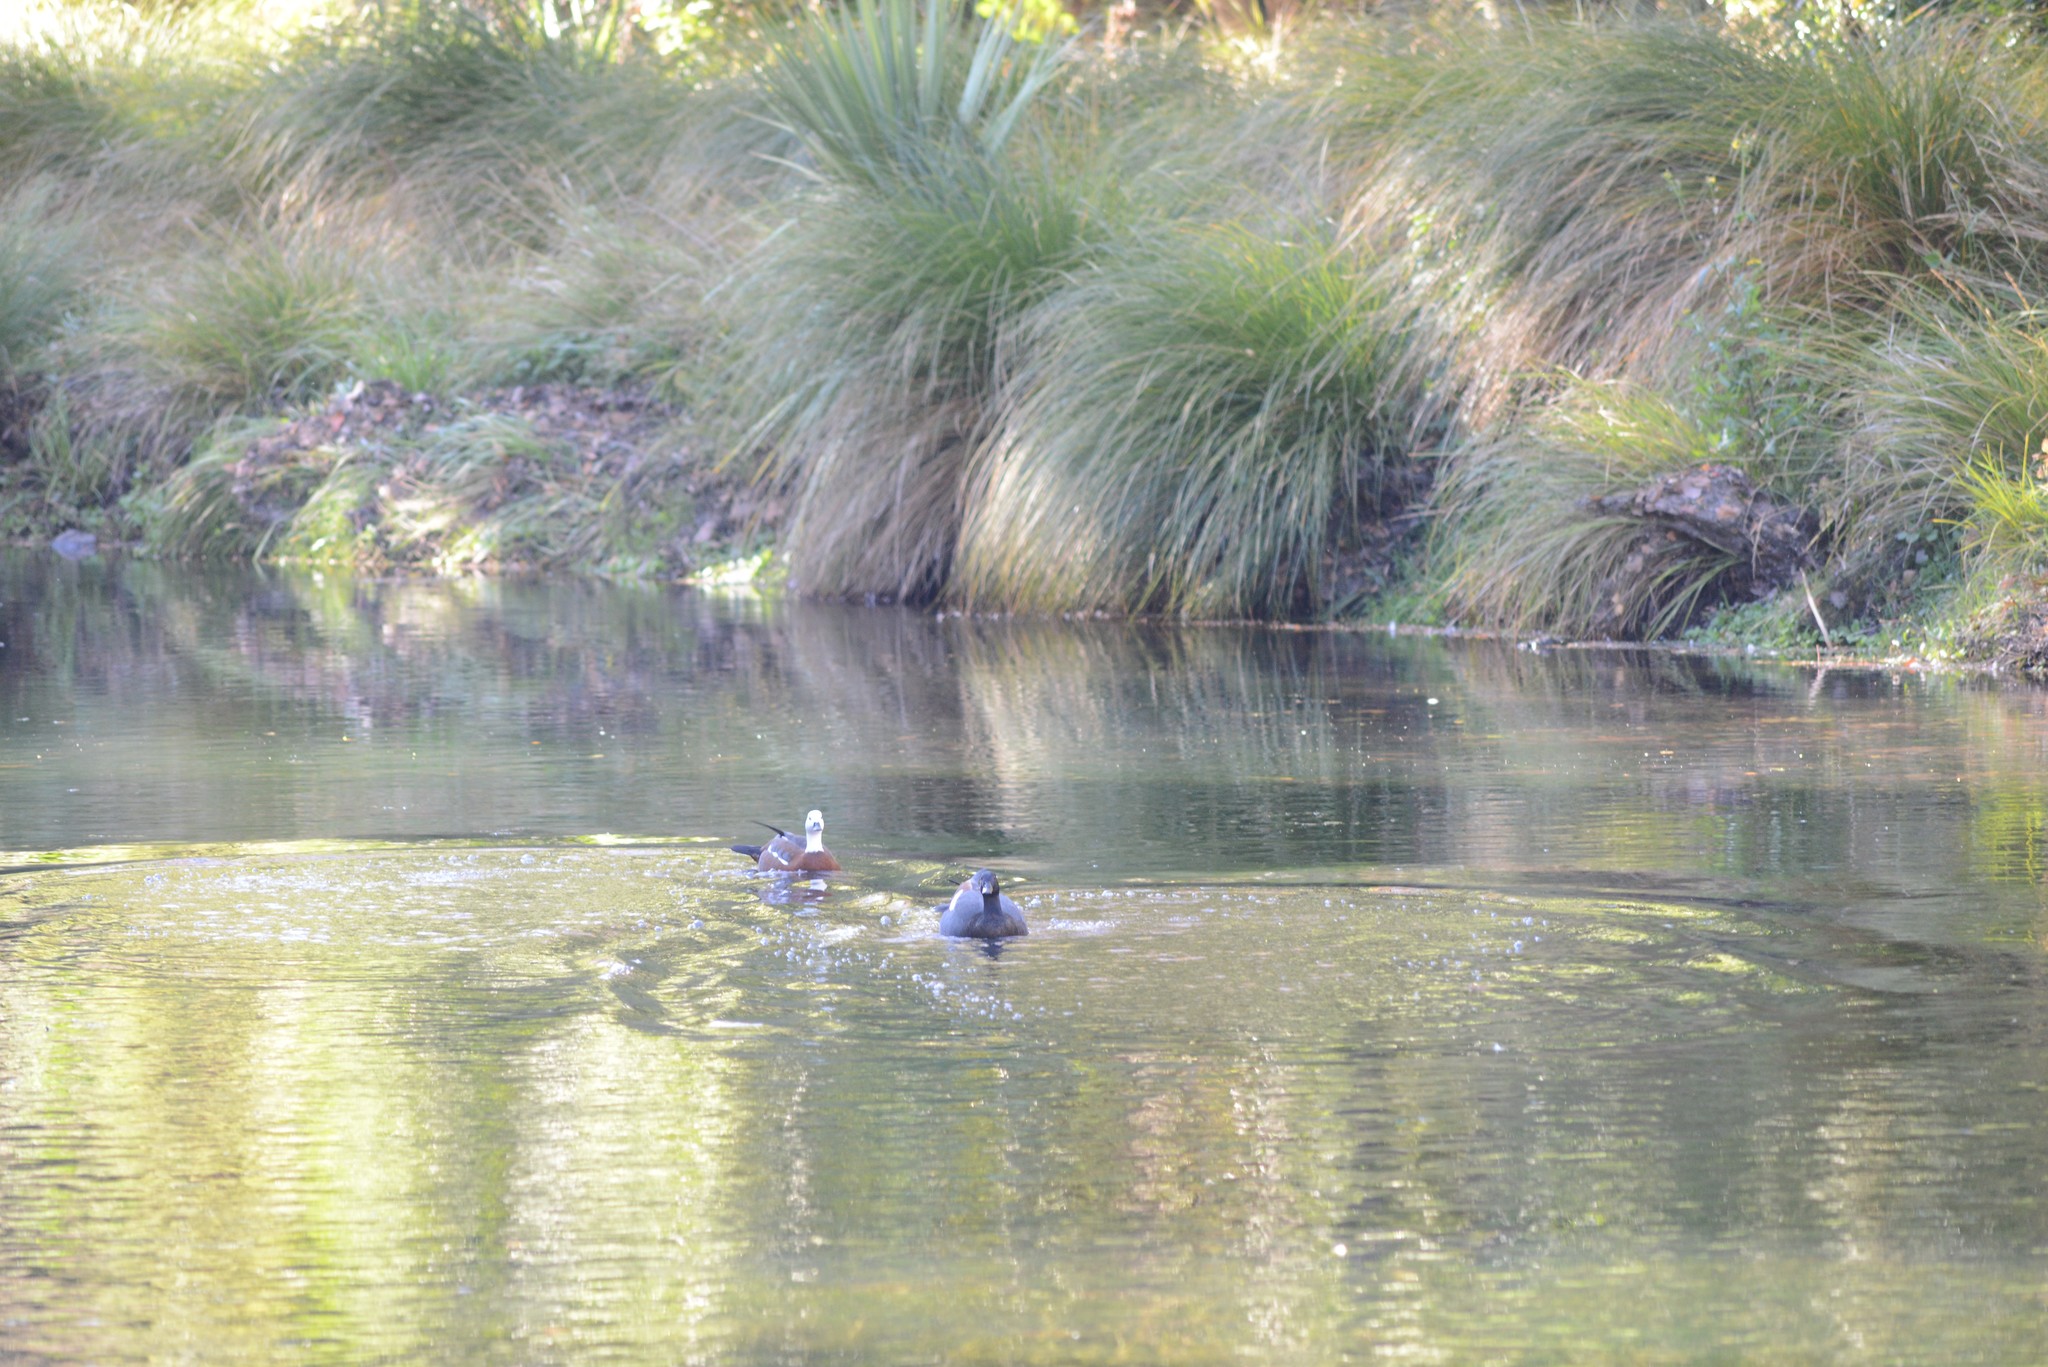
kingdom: Animalia
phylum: Chordata
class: Aves
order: Anseriformes
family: Anatidae
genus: Tadorna
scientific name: Tadorna variegata
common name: Paradise shelduck
